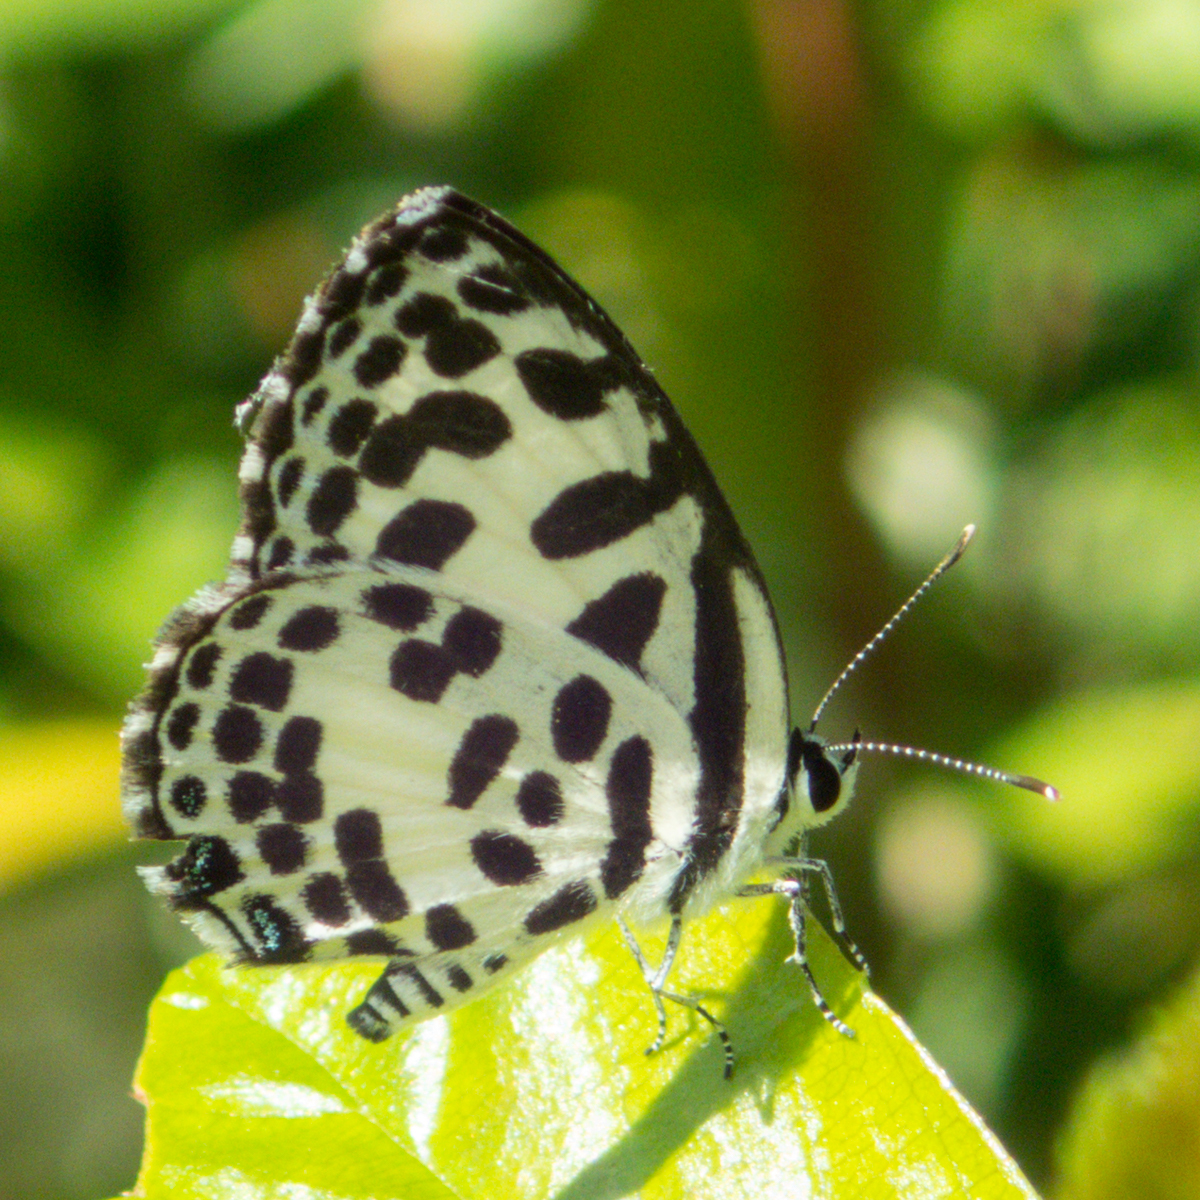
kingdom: Animalia
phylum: Arthropoda
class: Insecta
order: Lepidoptera
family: Lycaenidae
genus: Castalius
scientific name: Castalius rosimon
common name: Common pierrot
